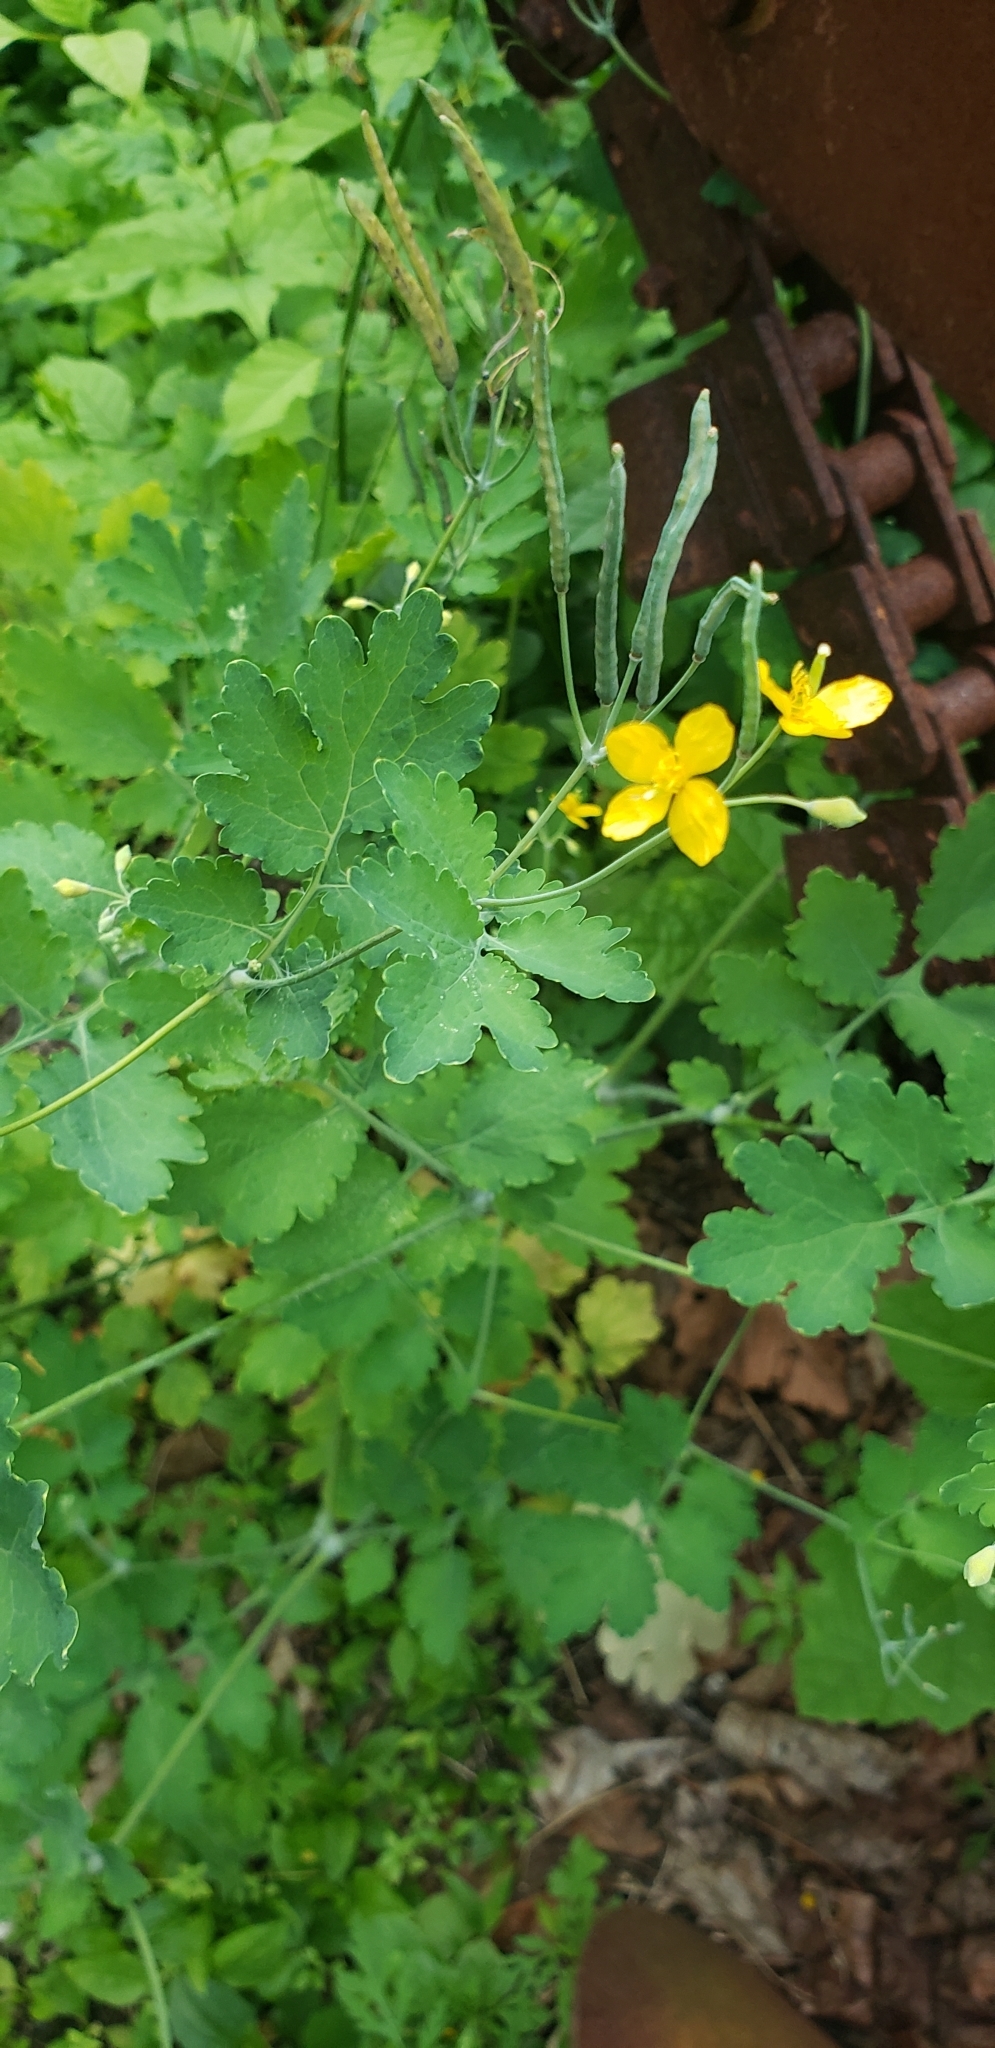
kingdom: Plantae
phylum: Tracheophyta
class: Magnoliopsida
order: Ranunculales
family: Papaveraceae
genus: Chelidonium
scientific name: Chelidonium majus
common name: Greater celandine
